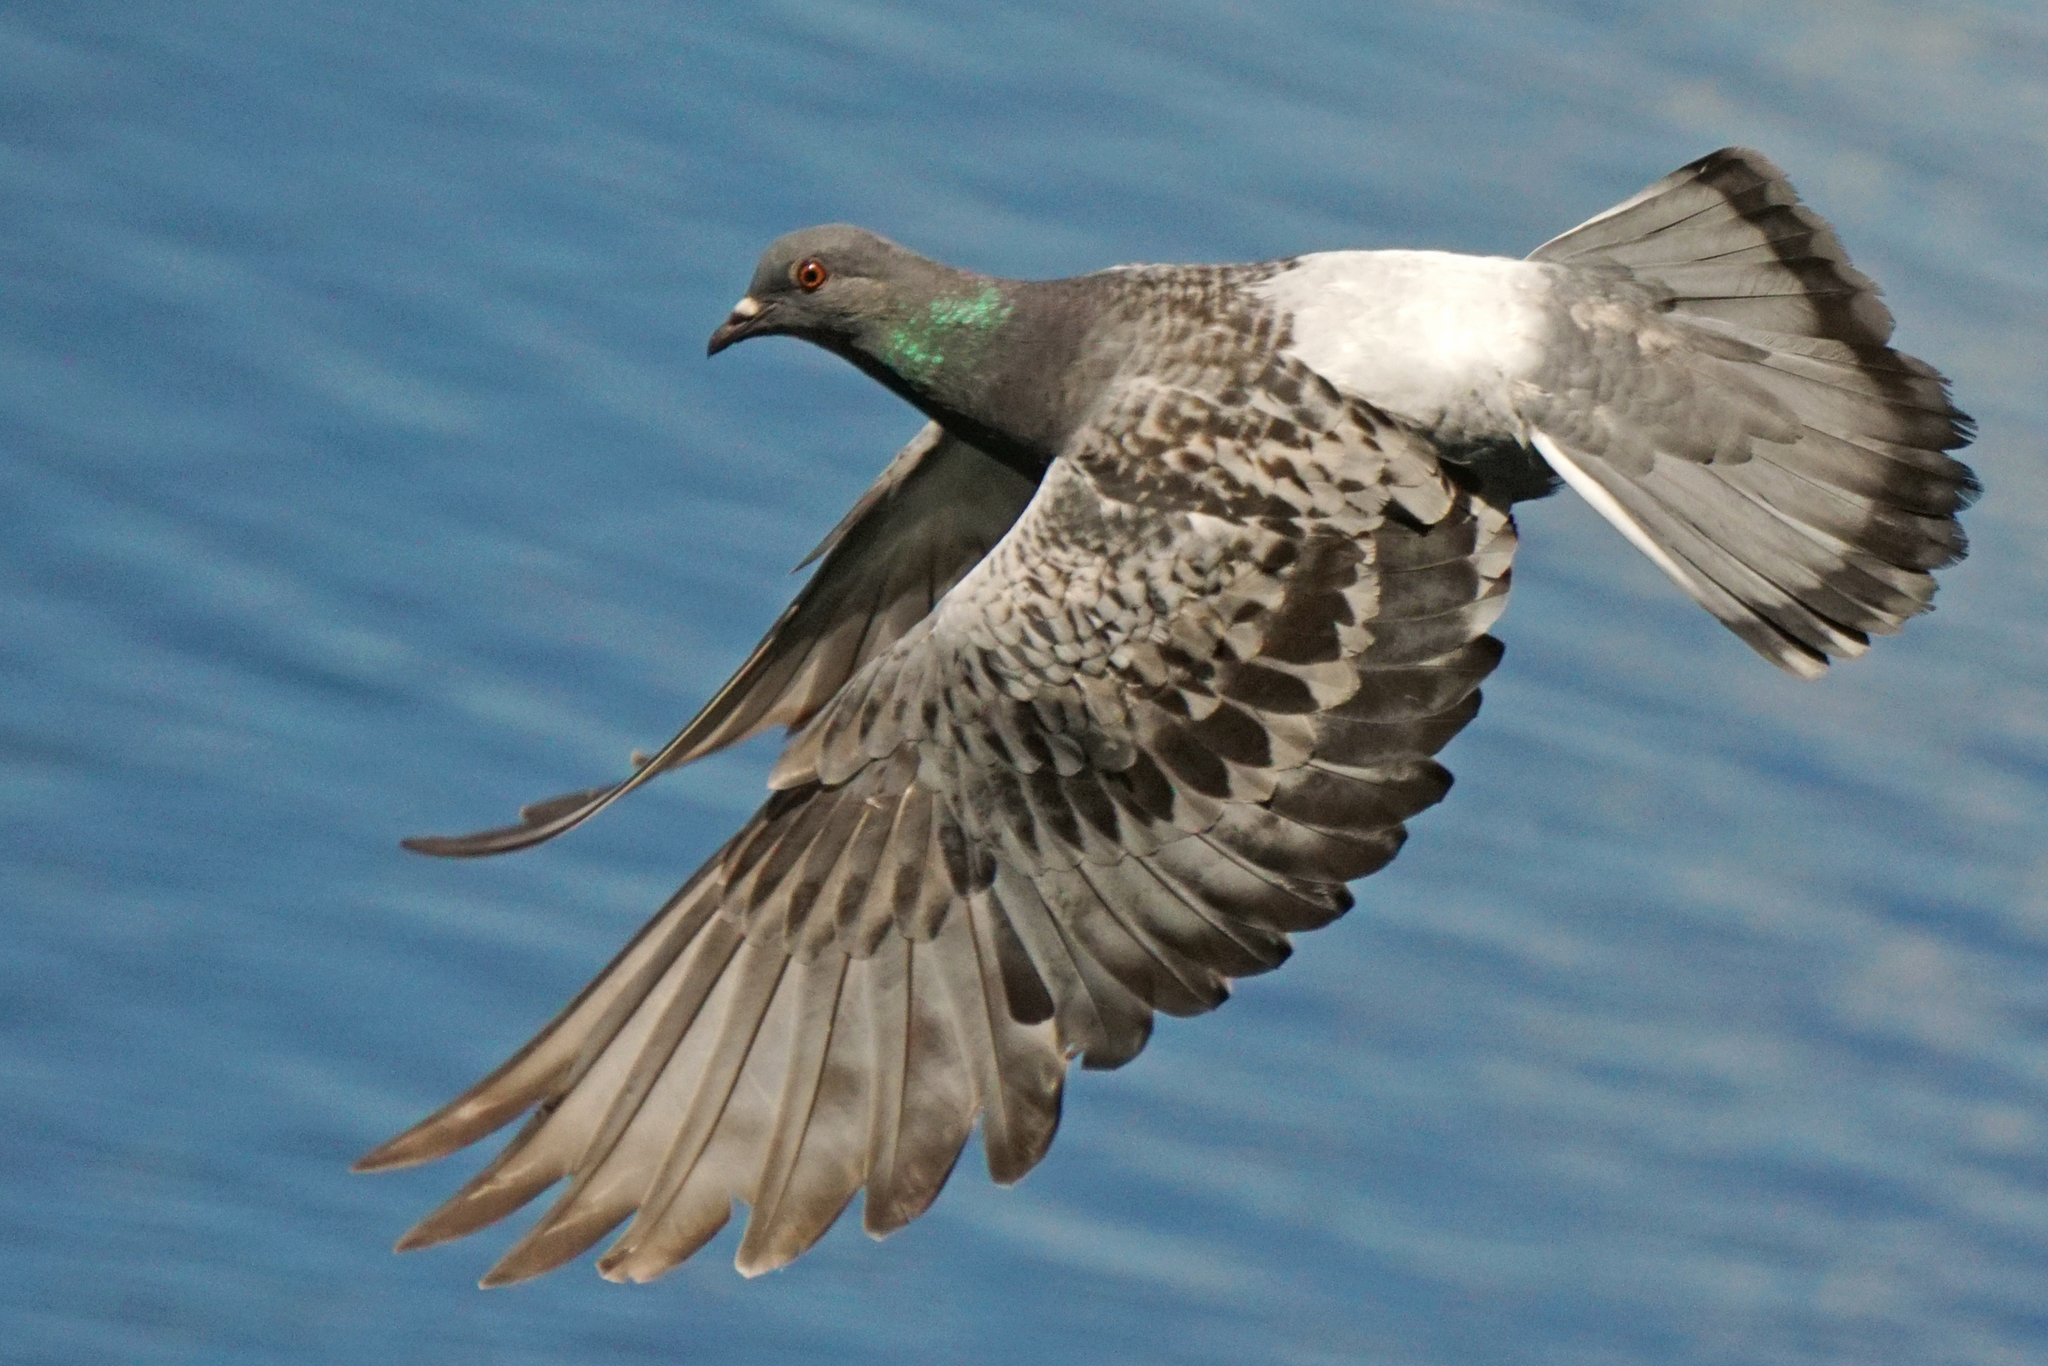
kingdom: Animalia
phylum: Chordata
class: Aves
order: Columbiformes
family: Columbidae
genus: Columba
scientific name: Columba livia
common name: Rock pigeon
